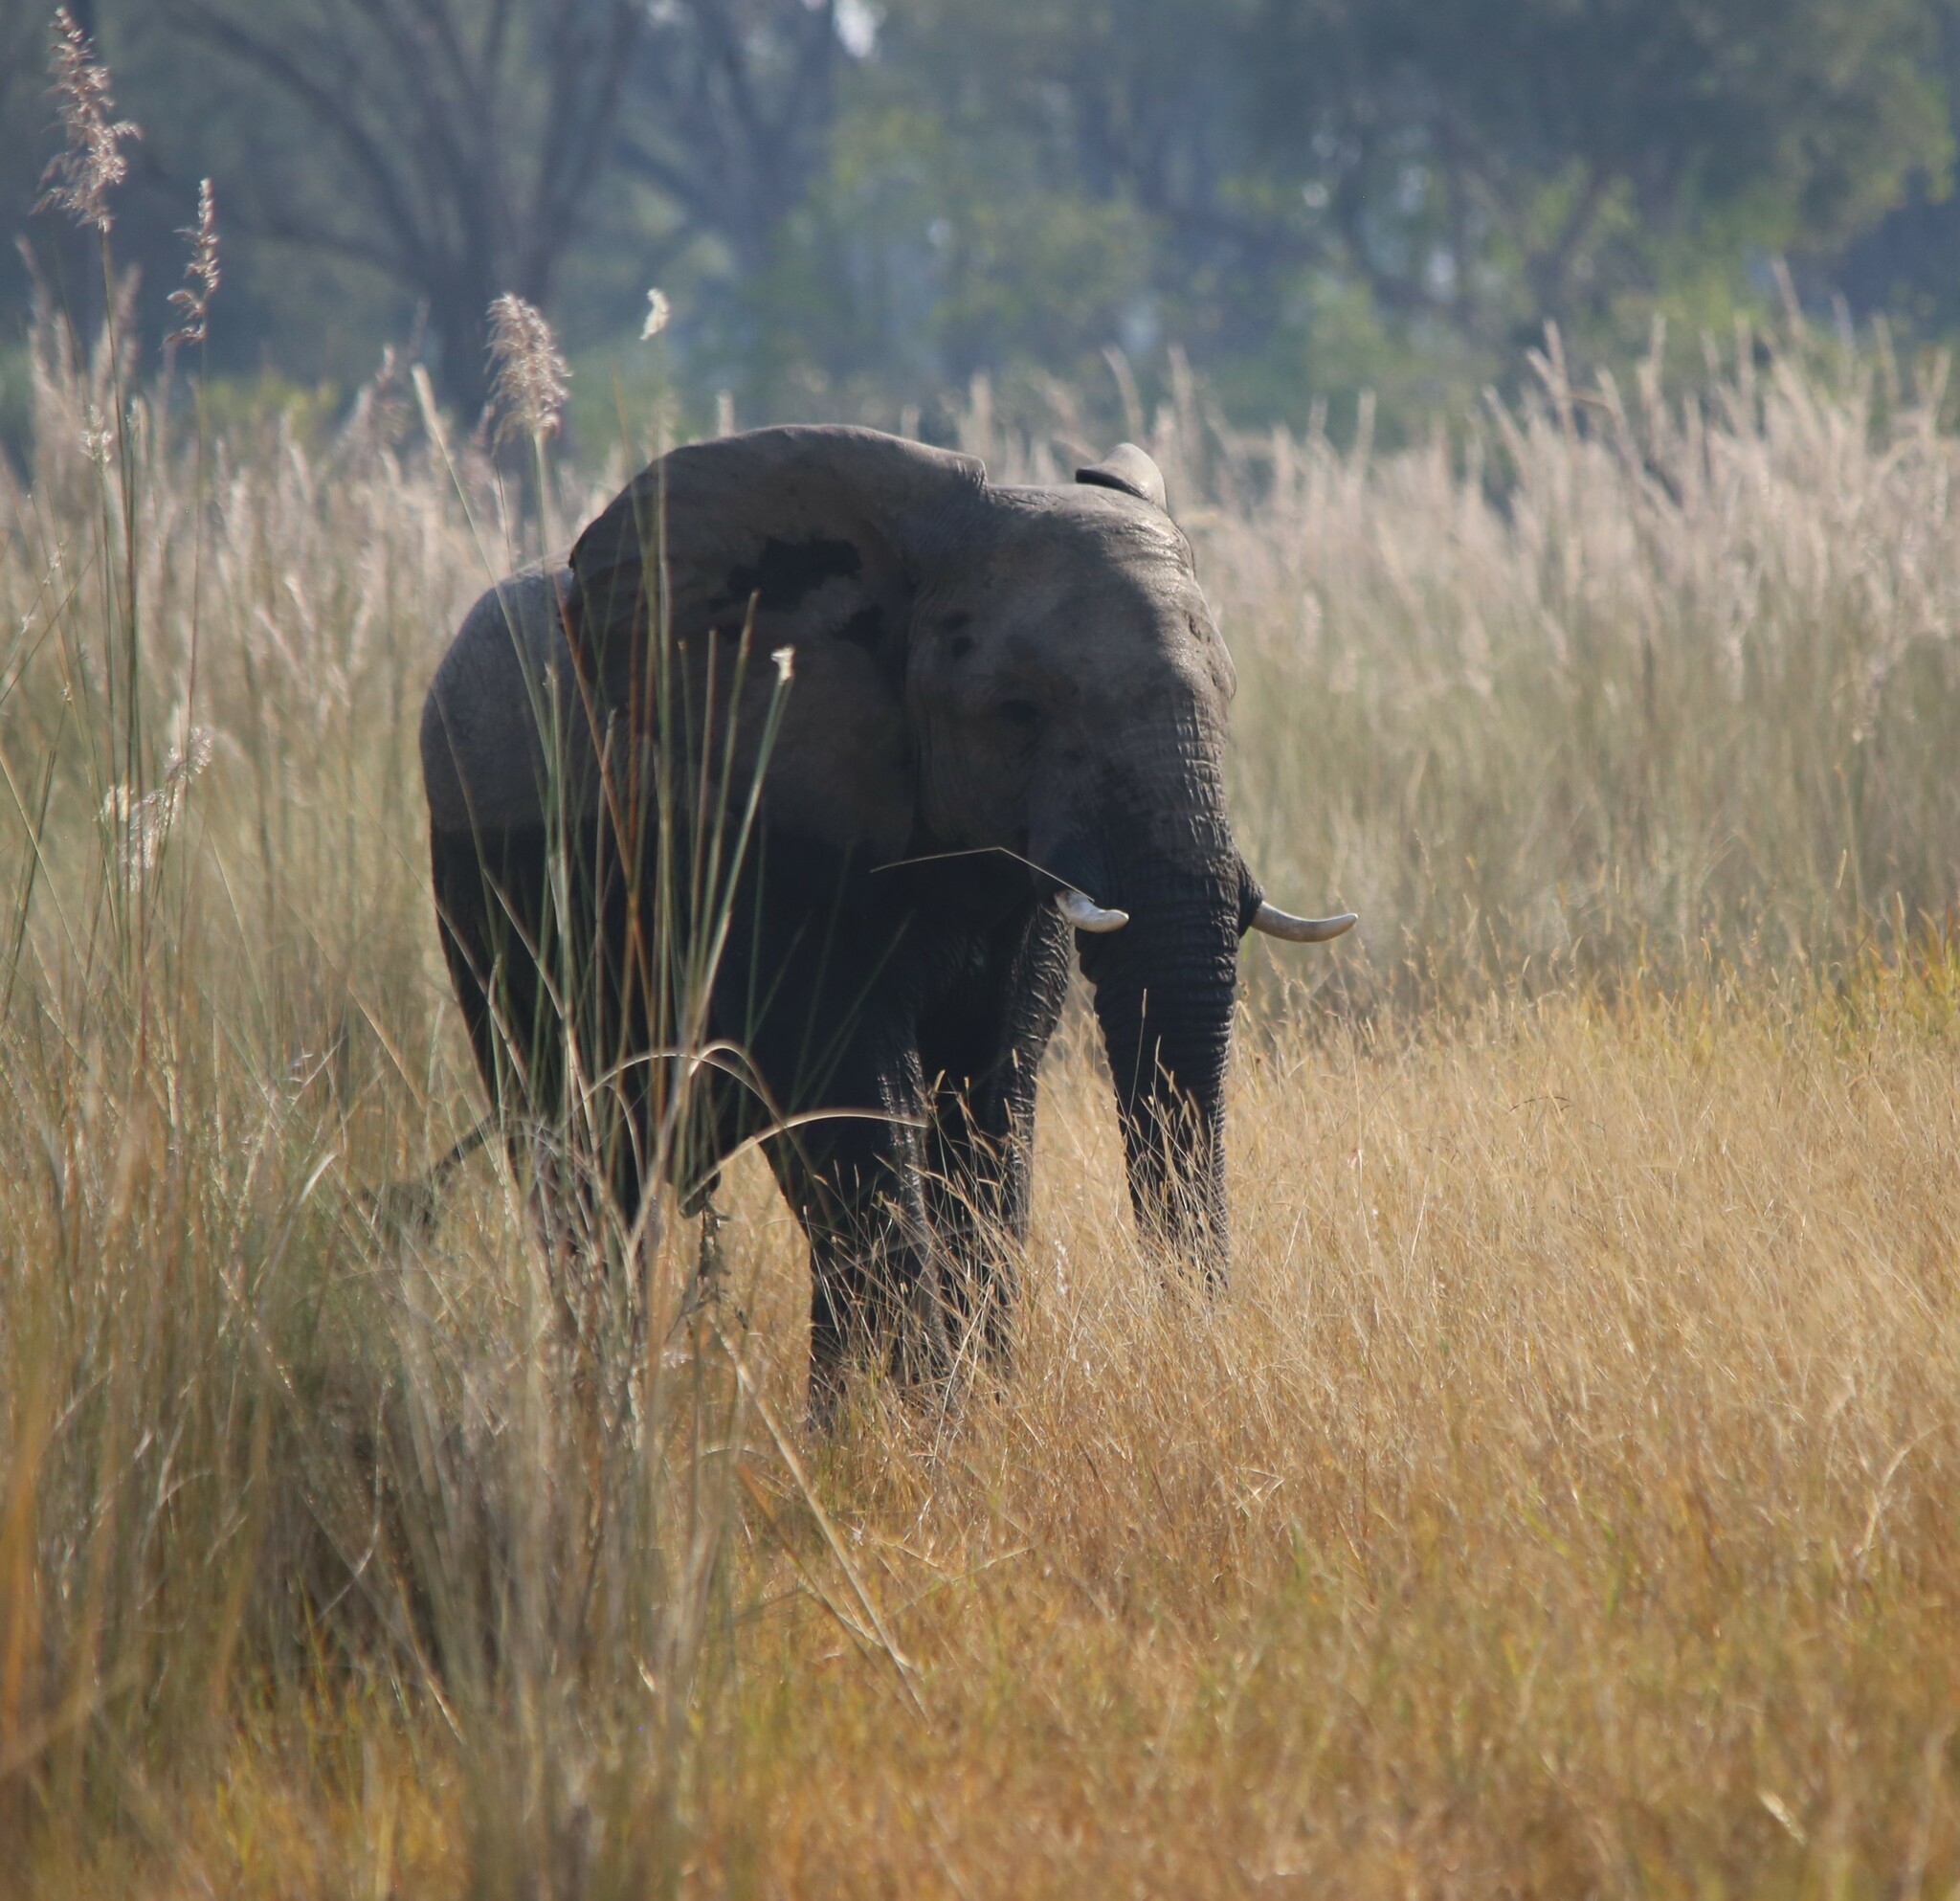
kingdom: Animalia
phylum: Chordata
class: Mammalia
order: Proboscidea
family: Elephantidae
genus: Loxodonta
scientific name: Loxodonta africana
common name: African elephant
